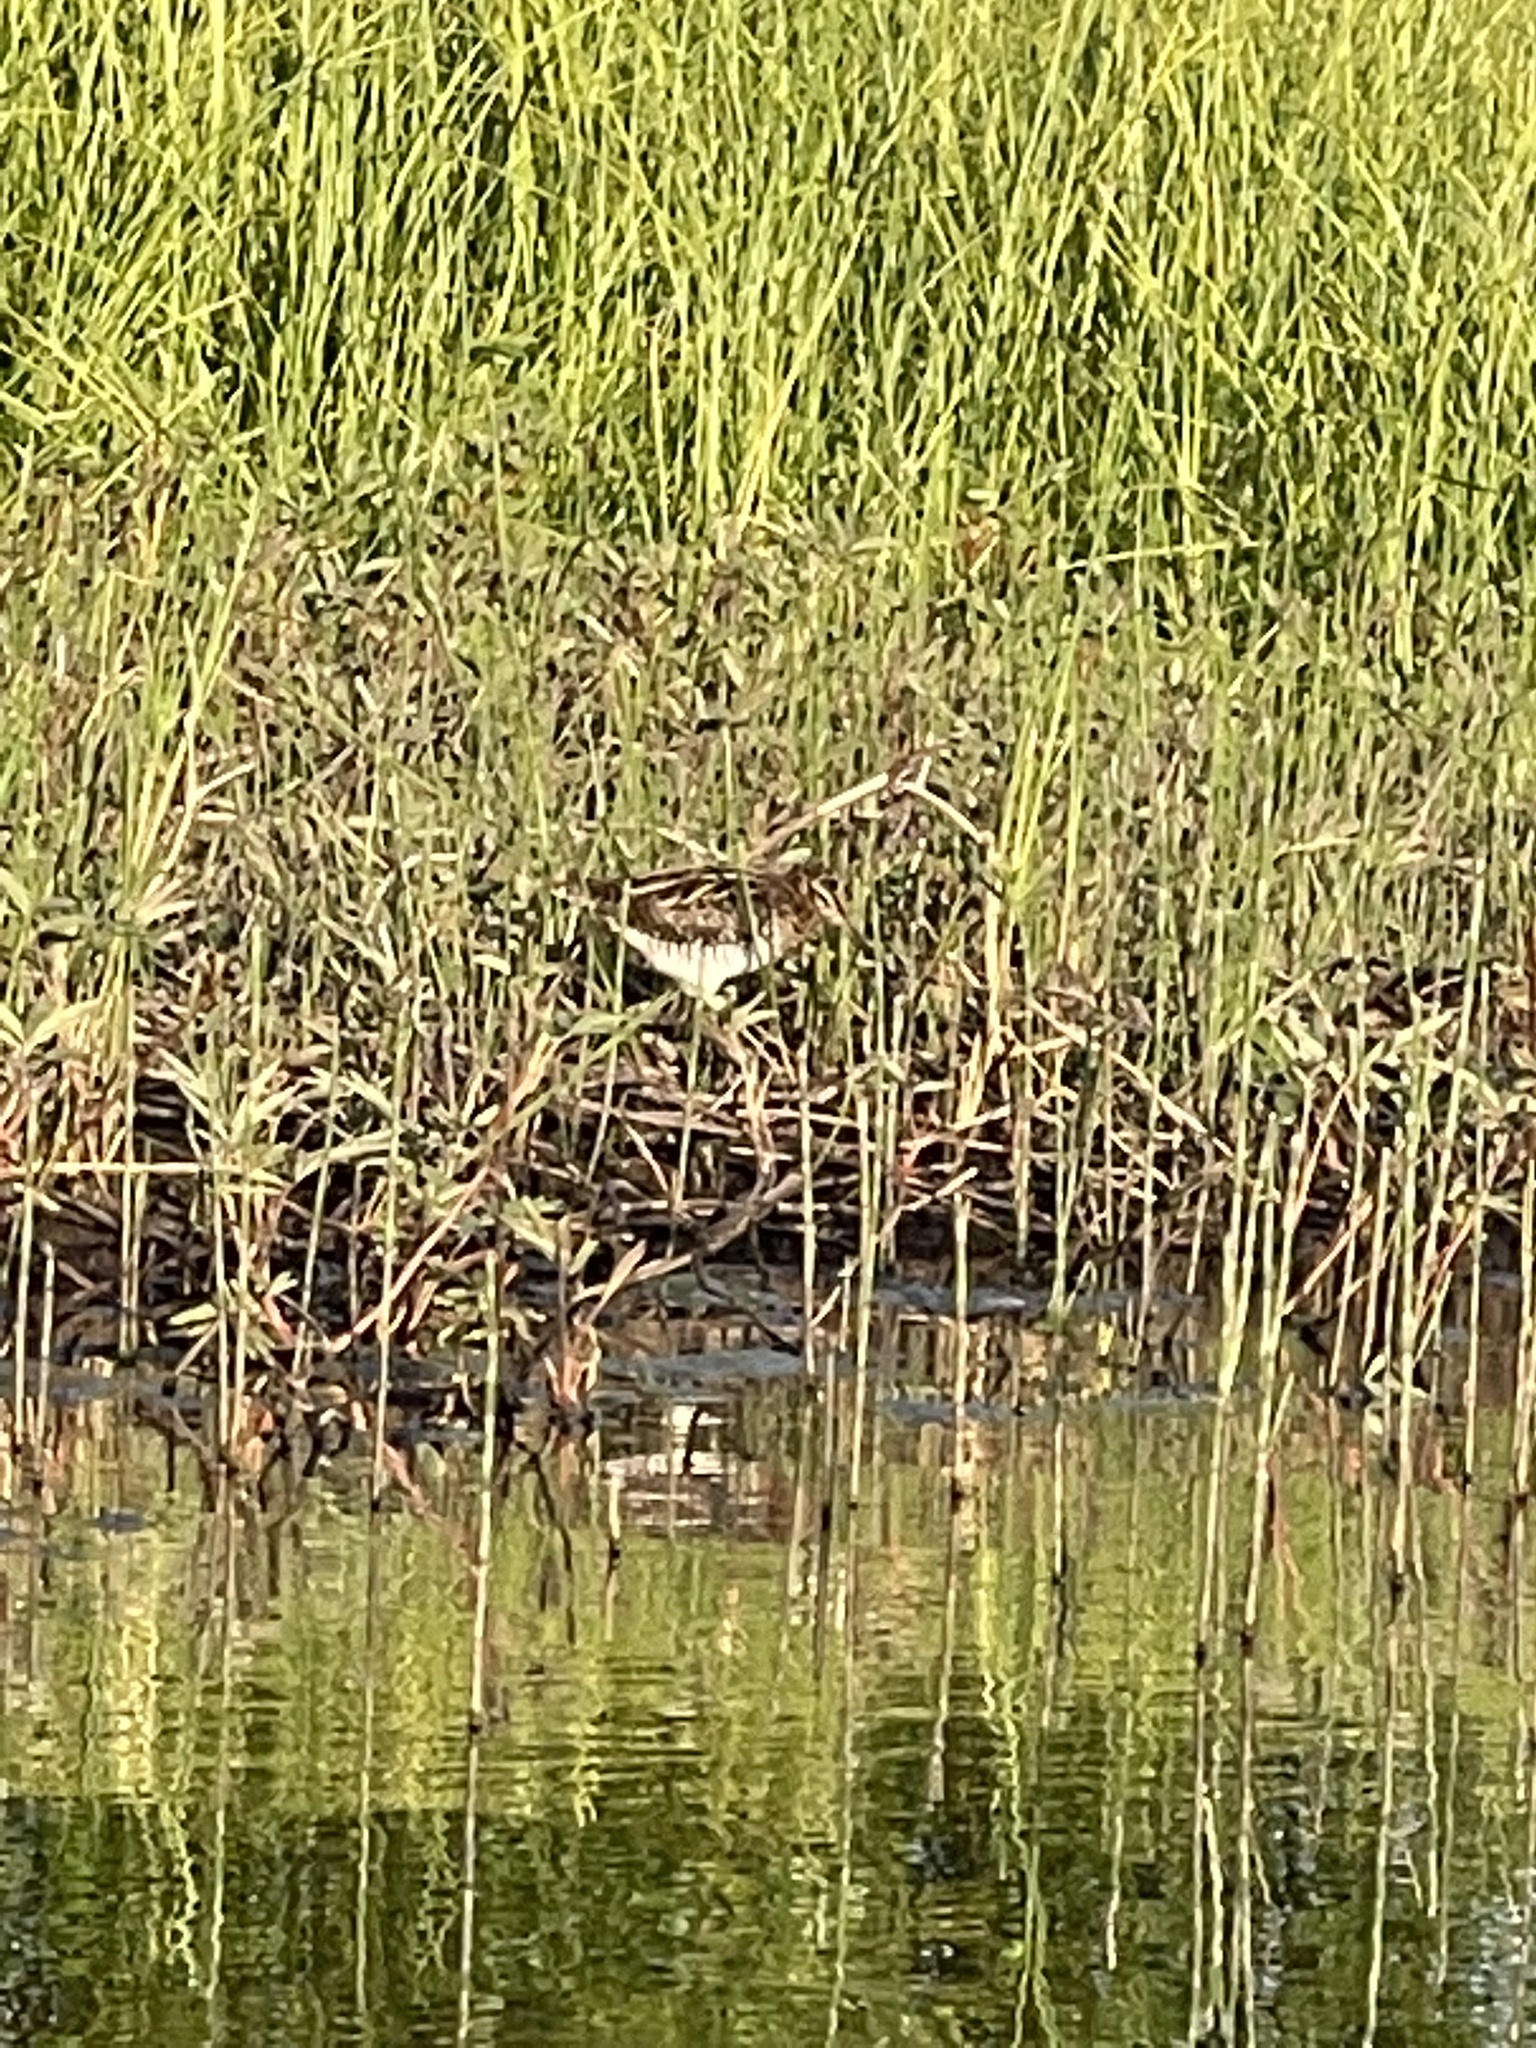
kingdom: Animalia
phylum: Chordata
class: Aves
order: Charadriiformes
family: Scolopacidae
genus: Gallinago
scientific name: Gallinago delicata
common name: Wilson's snipe
